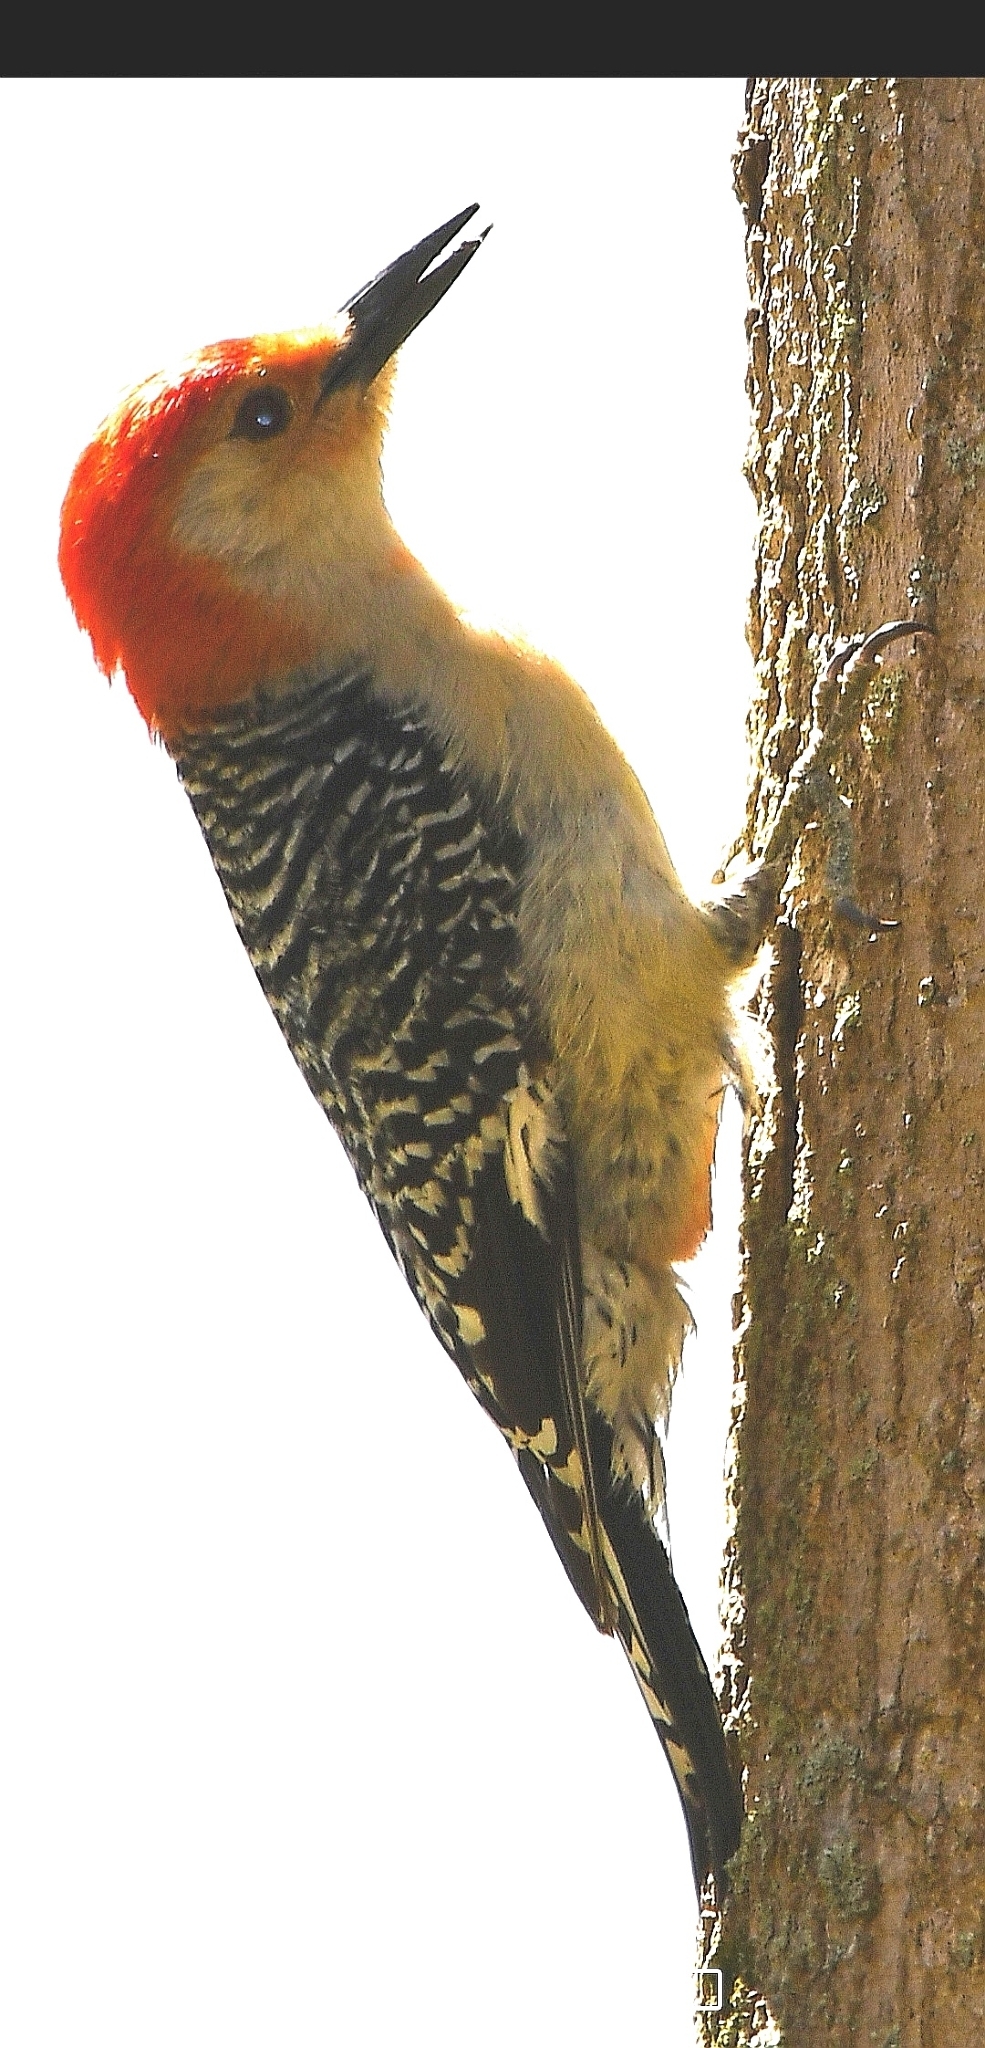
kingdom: Animalia
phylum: Chordata
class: Aves
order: Piciformes
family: Picidae
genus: Melanerpes
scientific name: Melanerpes carolinus
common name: Red-bellied woodpecker
